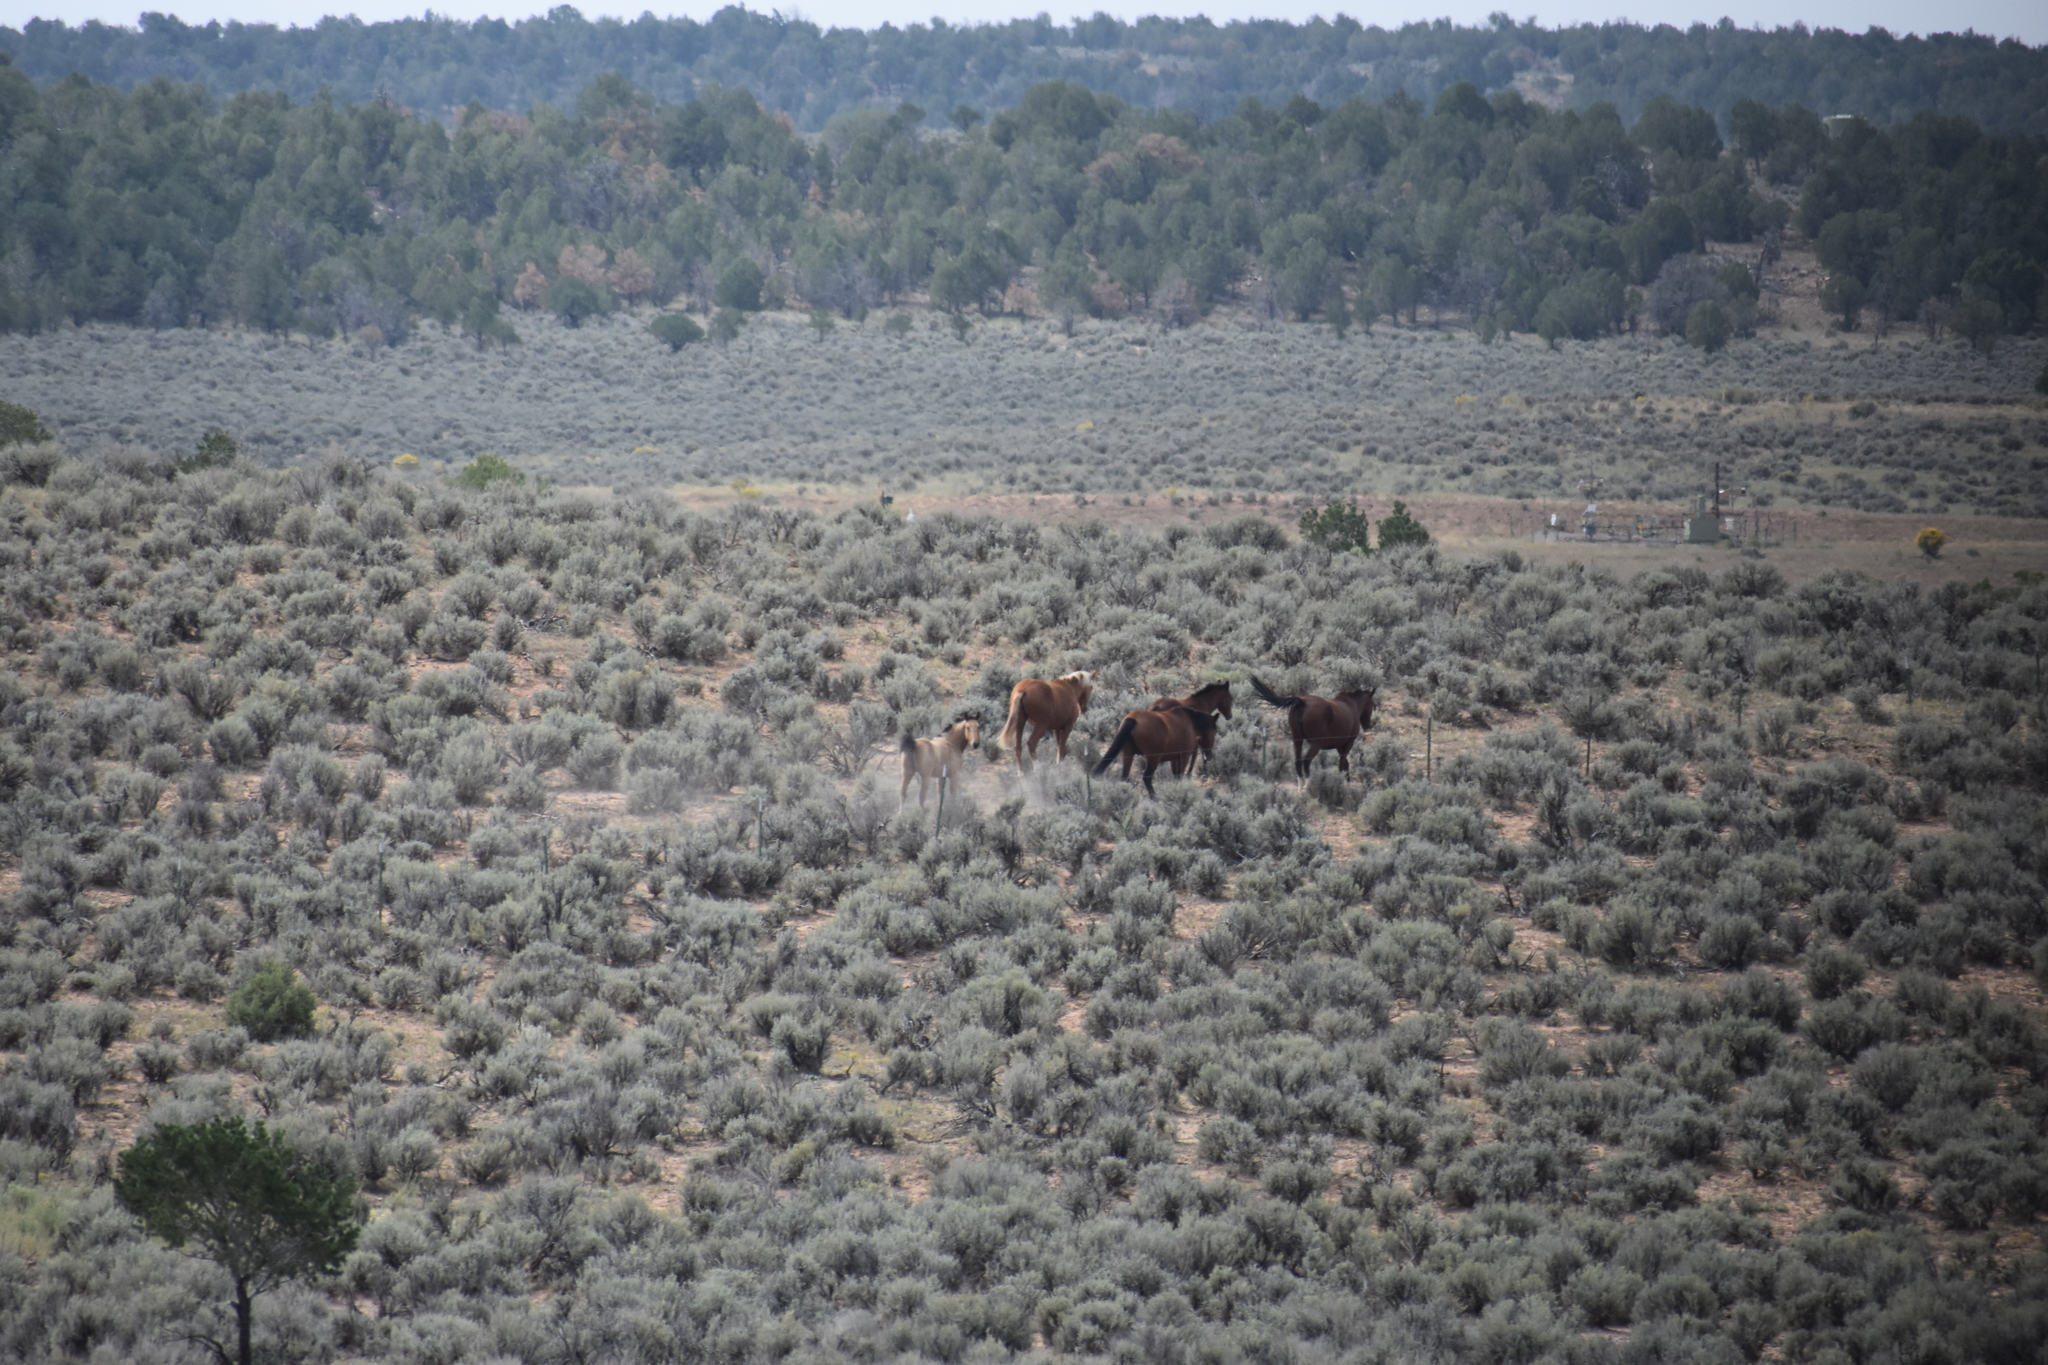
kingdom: Animalia
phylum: Chordata
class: Mammalia
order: Perissodactyla
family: Equidae
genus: Equus
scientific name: Equus caballus
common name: Horse
